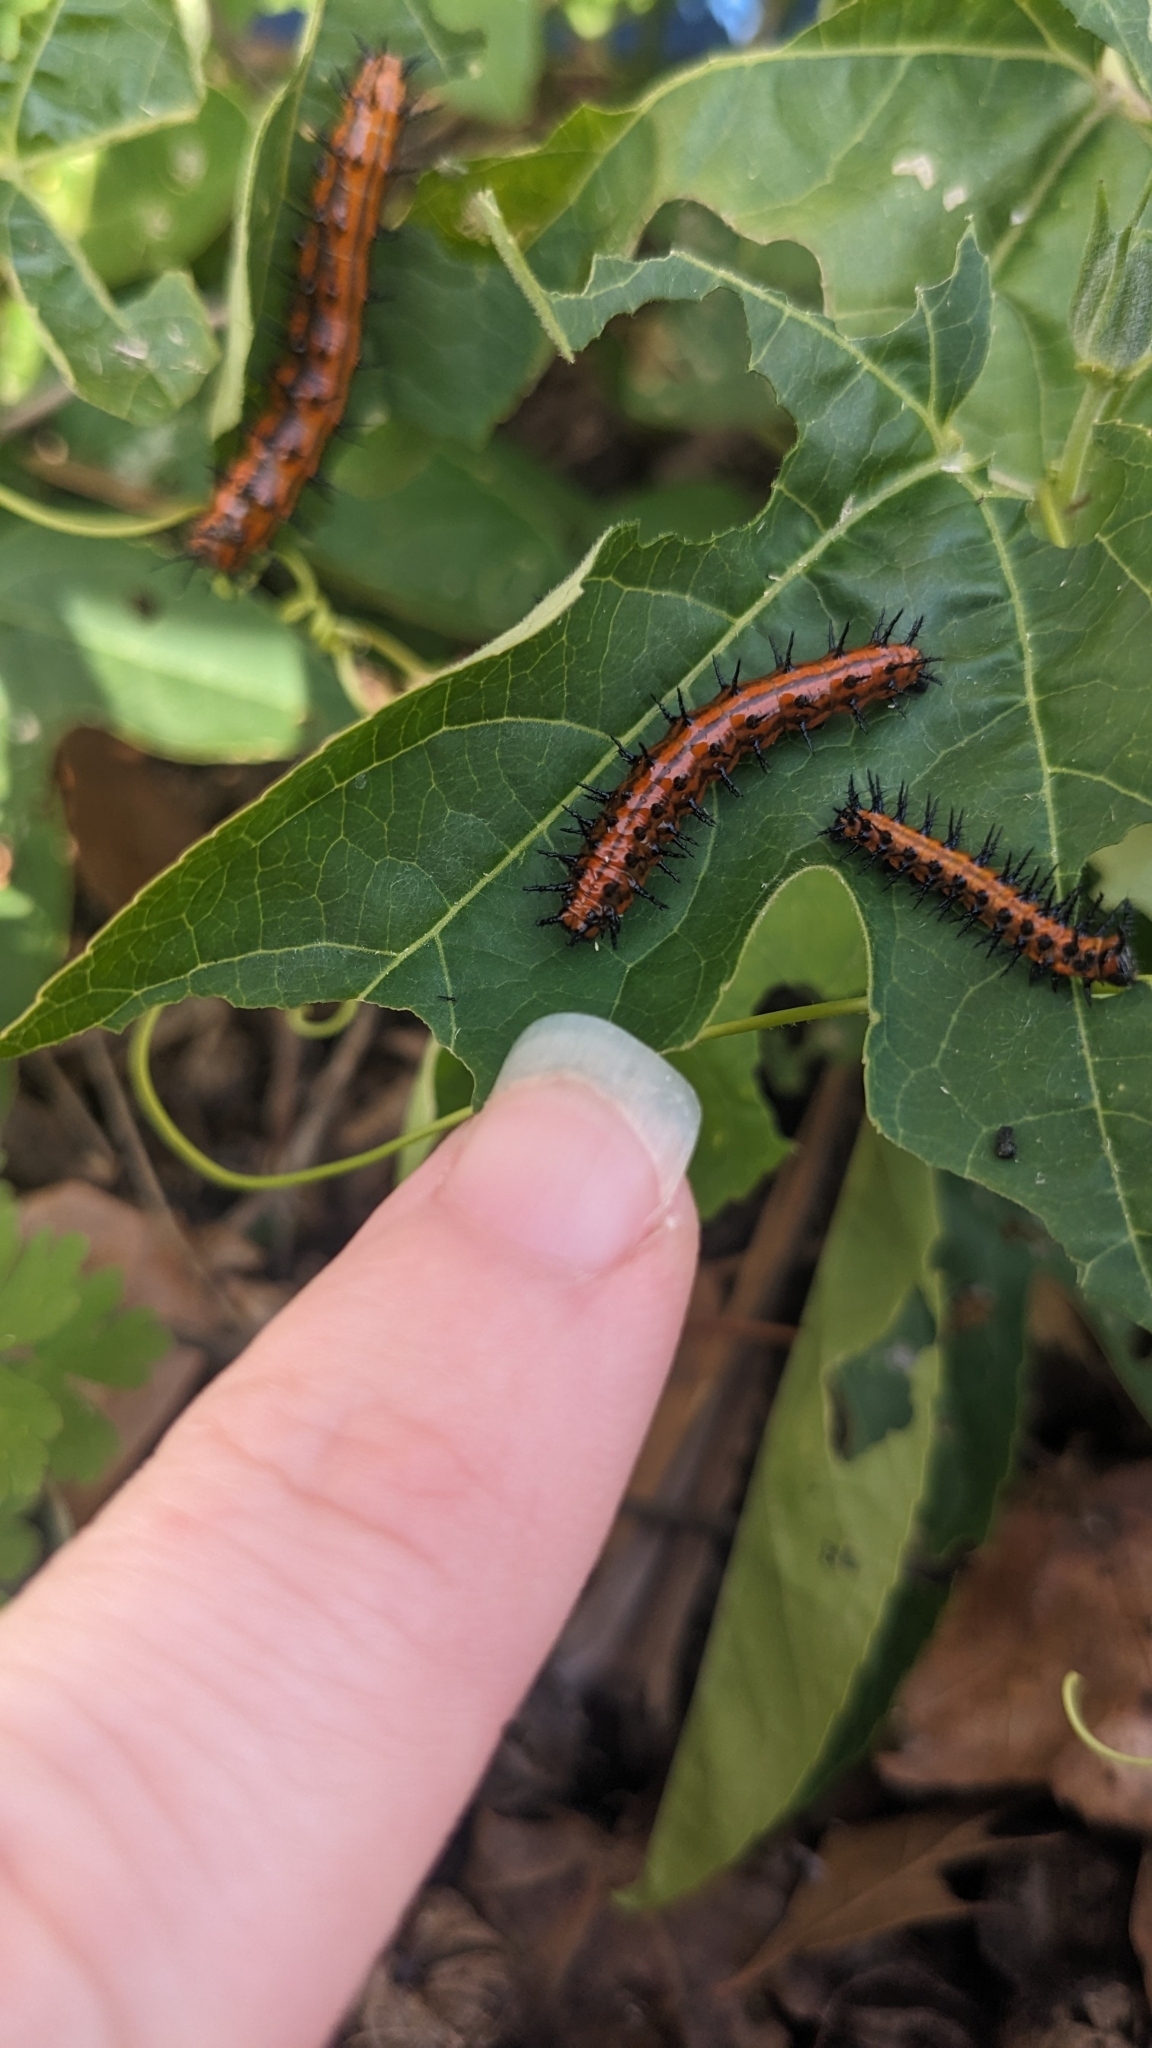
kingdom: Animalia
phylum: Arthropoda
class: Insecta
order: Lepidoptera
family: Nymphalidae
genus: Dione
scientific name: Dione vanillae
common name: Gulf fritillary
